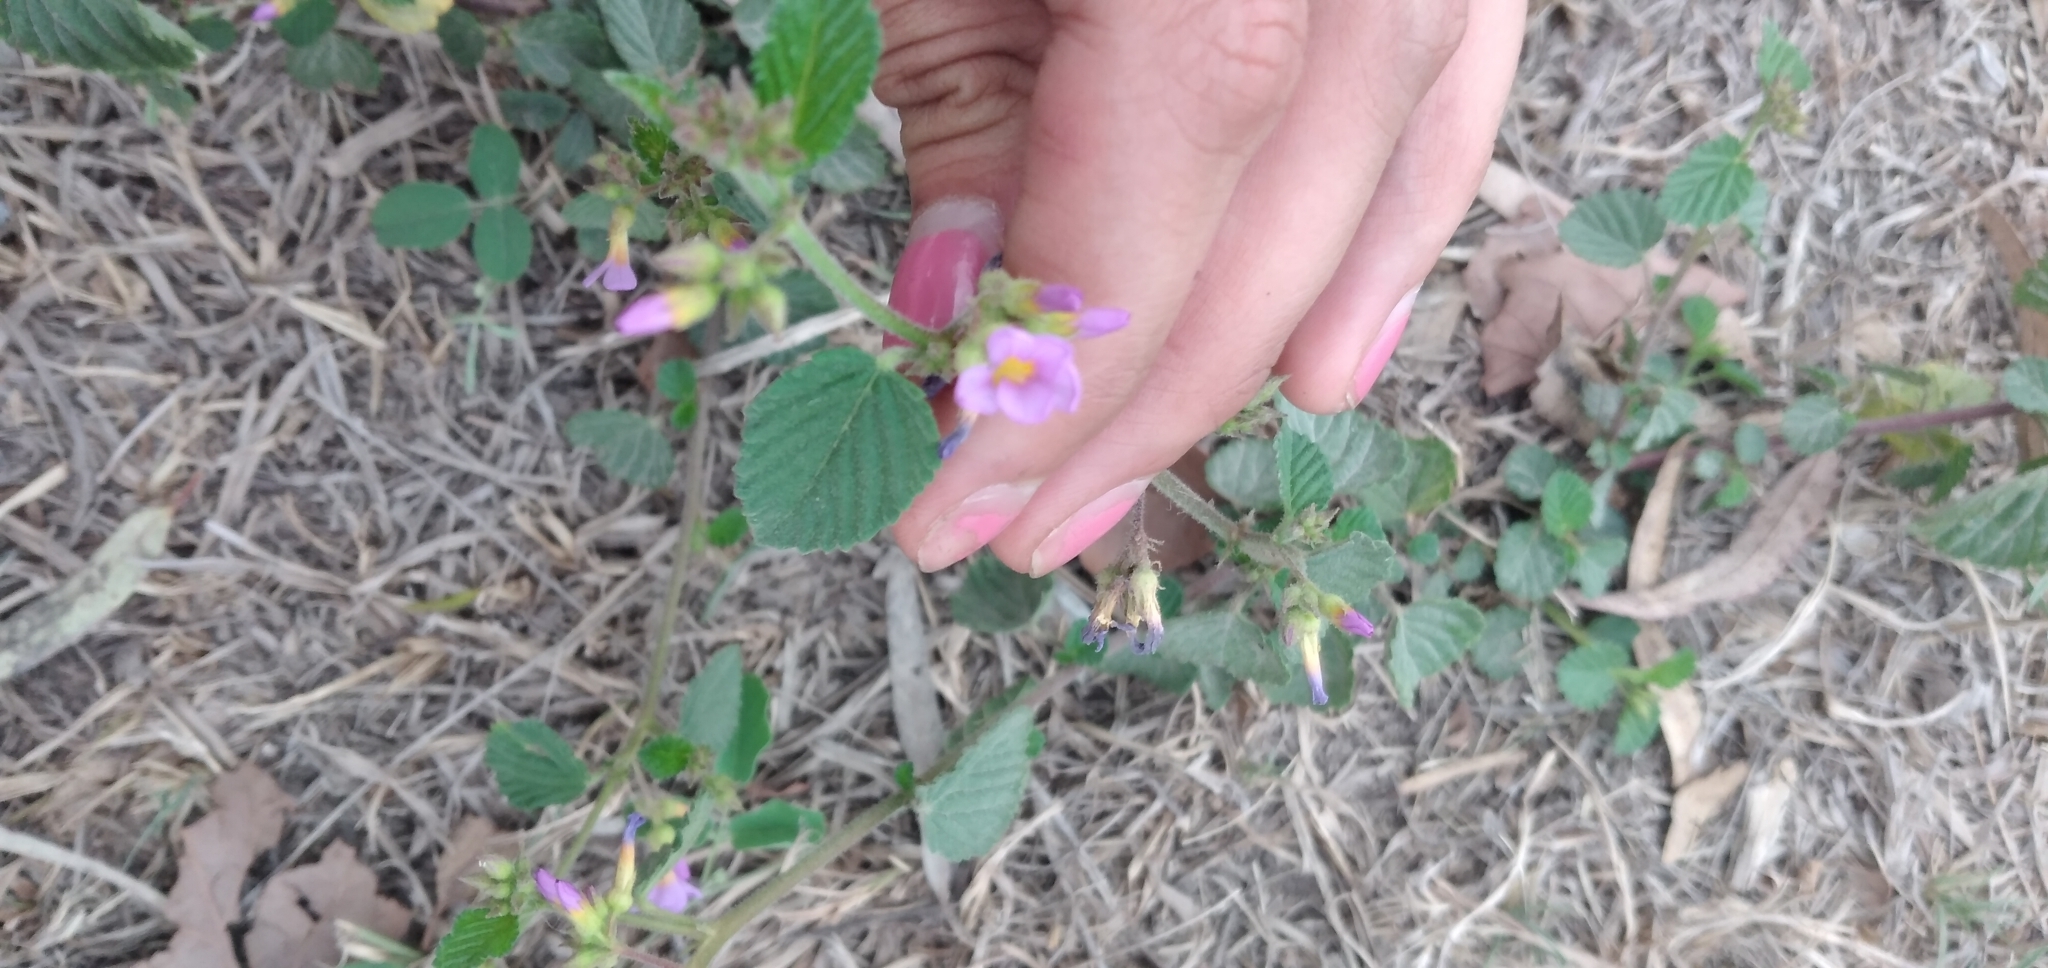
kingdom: Plantae
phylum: Tracheophyta
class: Magnoliopsida
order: Malvales
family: Malvaceae
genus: Melochia
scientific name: Melochia pyramidata
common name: Pyramidflower
